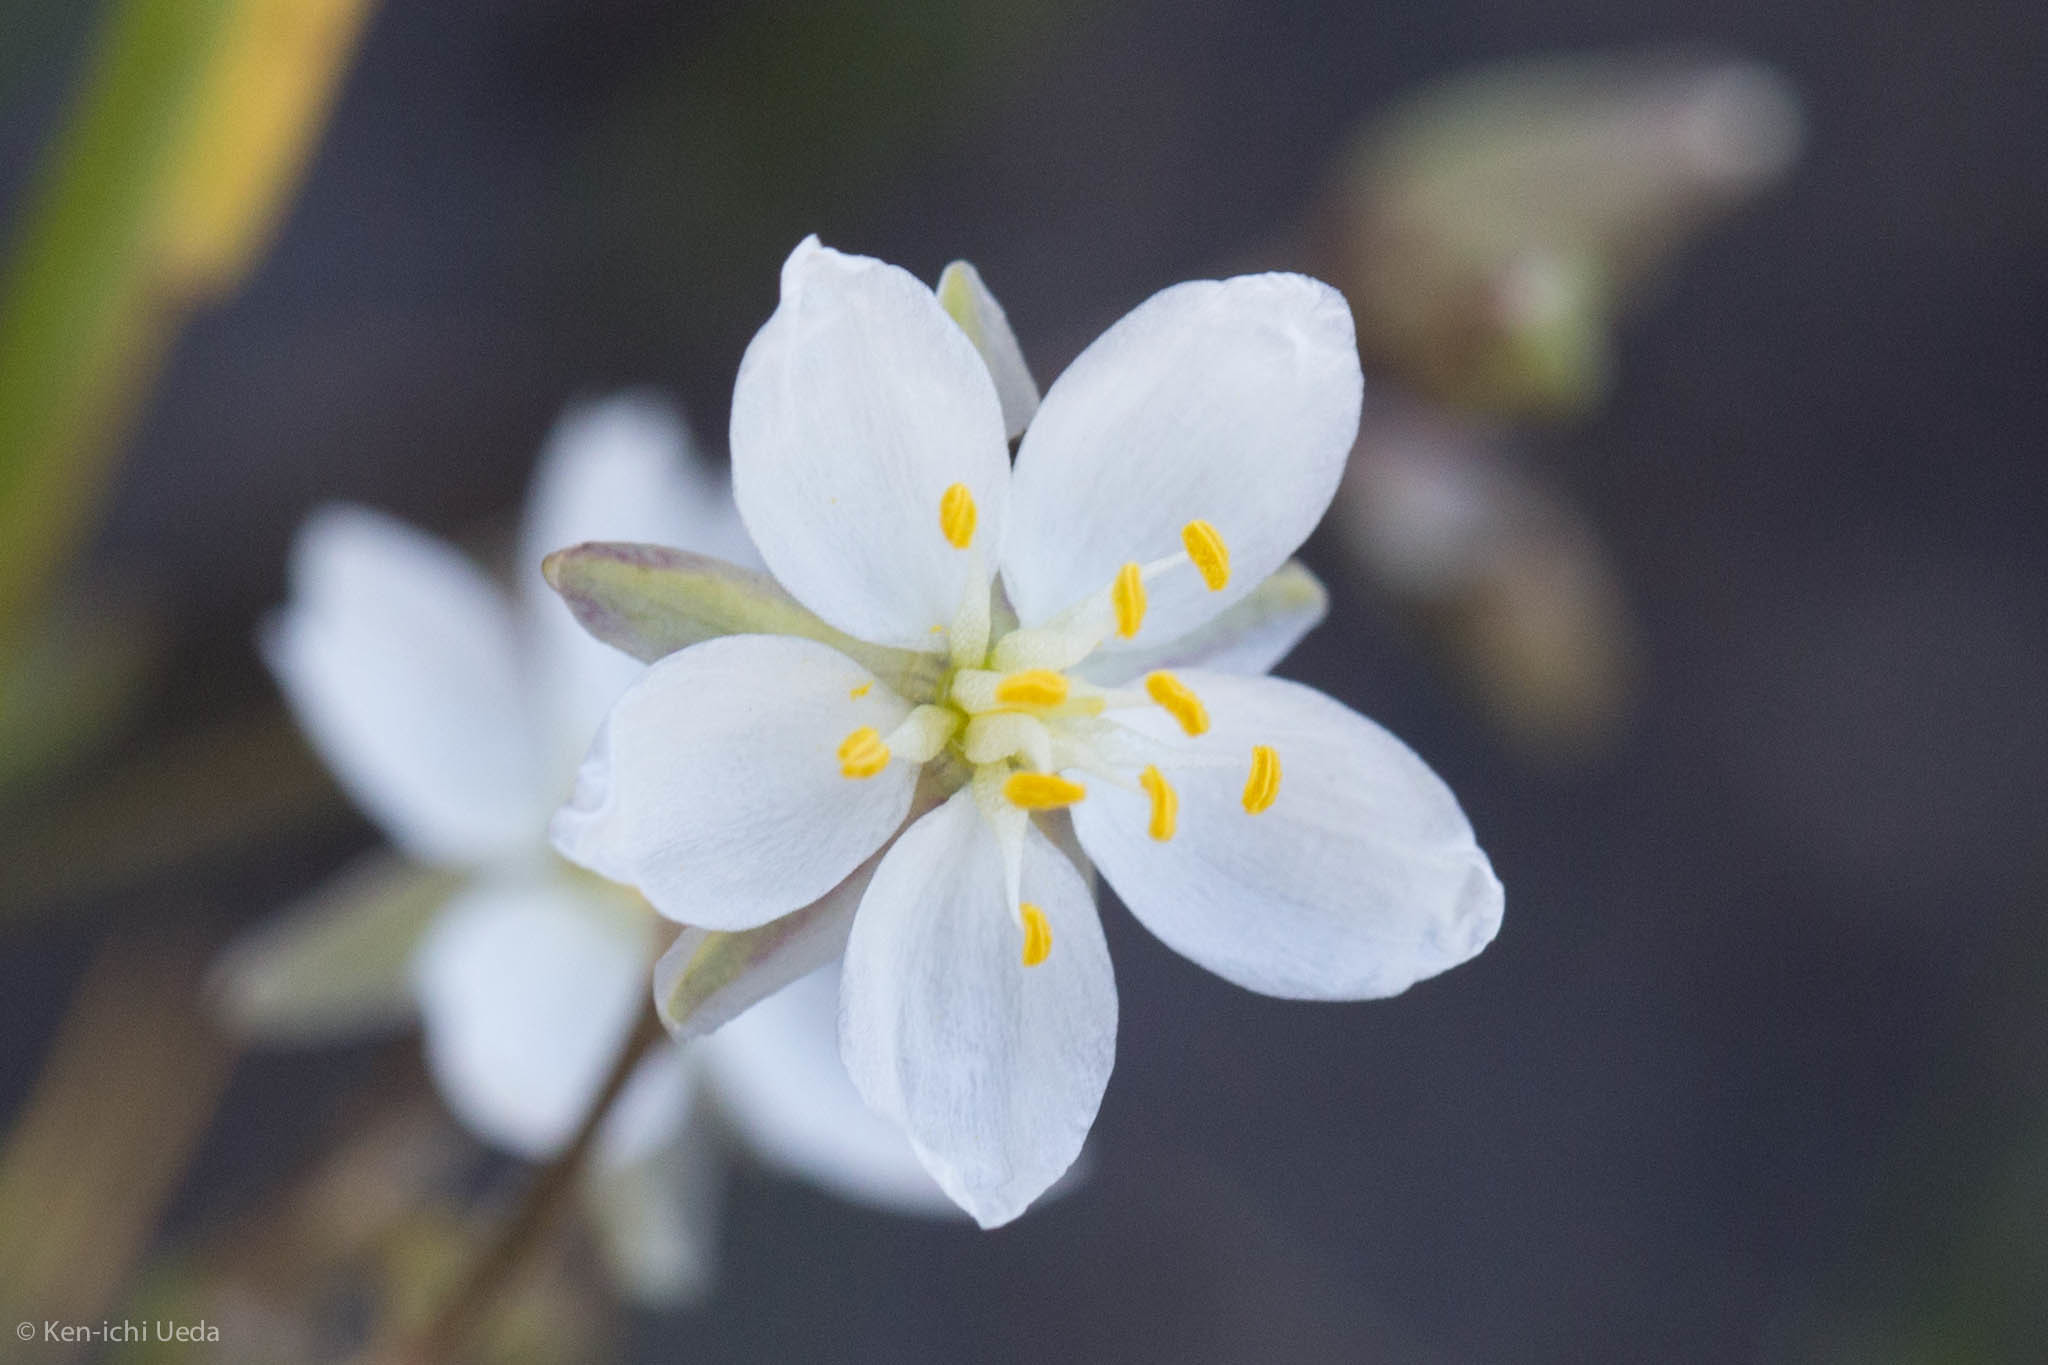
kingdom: Plantae
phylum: Tracheophyta
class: Magnoliopsida
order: Caryophyllales
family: Caryophyllaceae
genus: Spergularia
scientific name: Spergularia macrotheca
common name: Beach sand-spurrey
